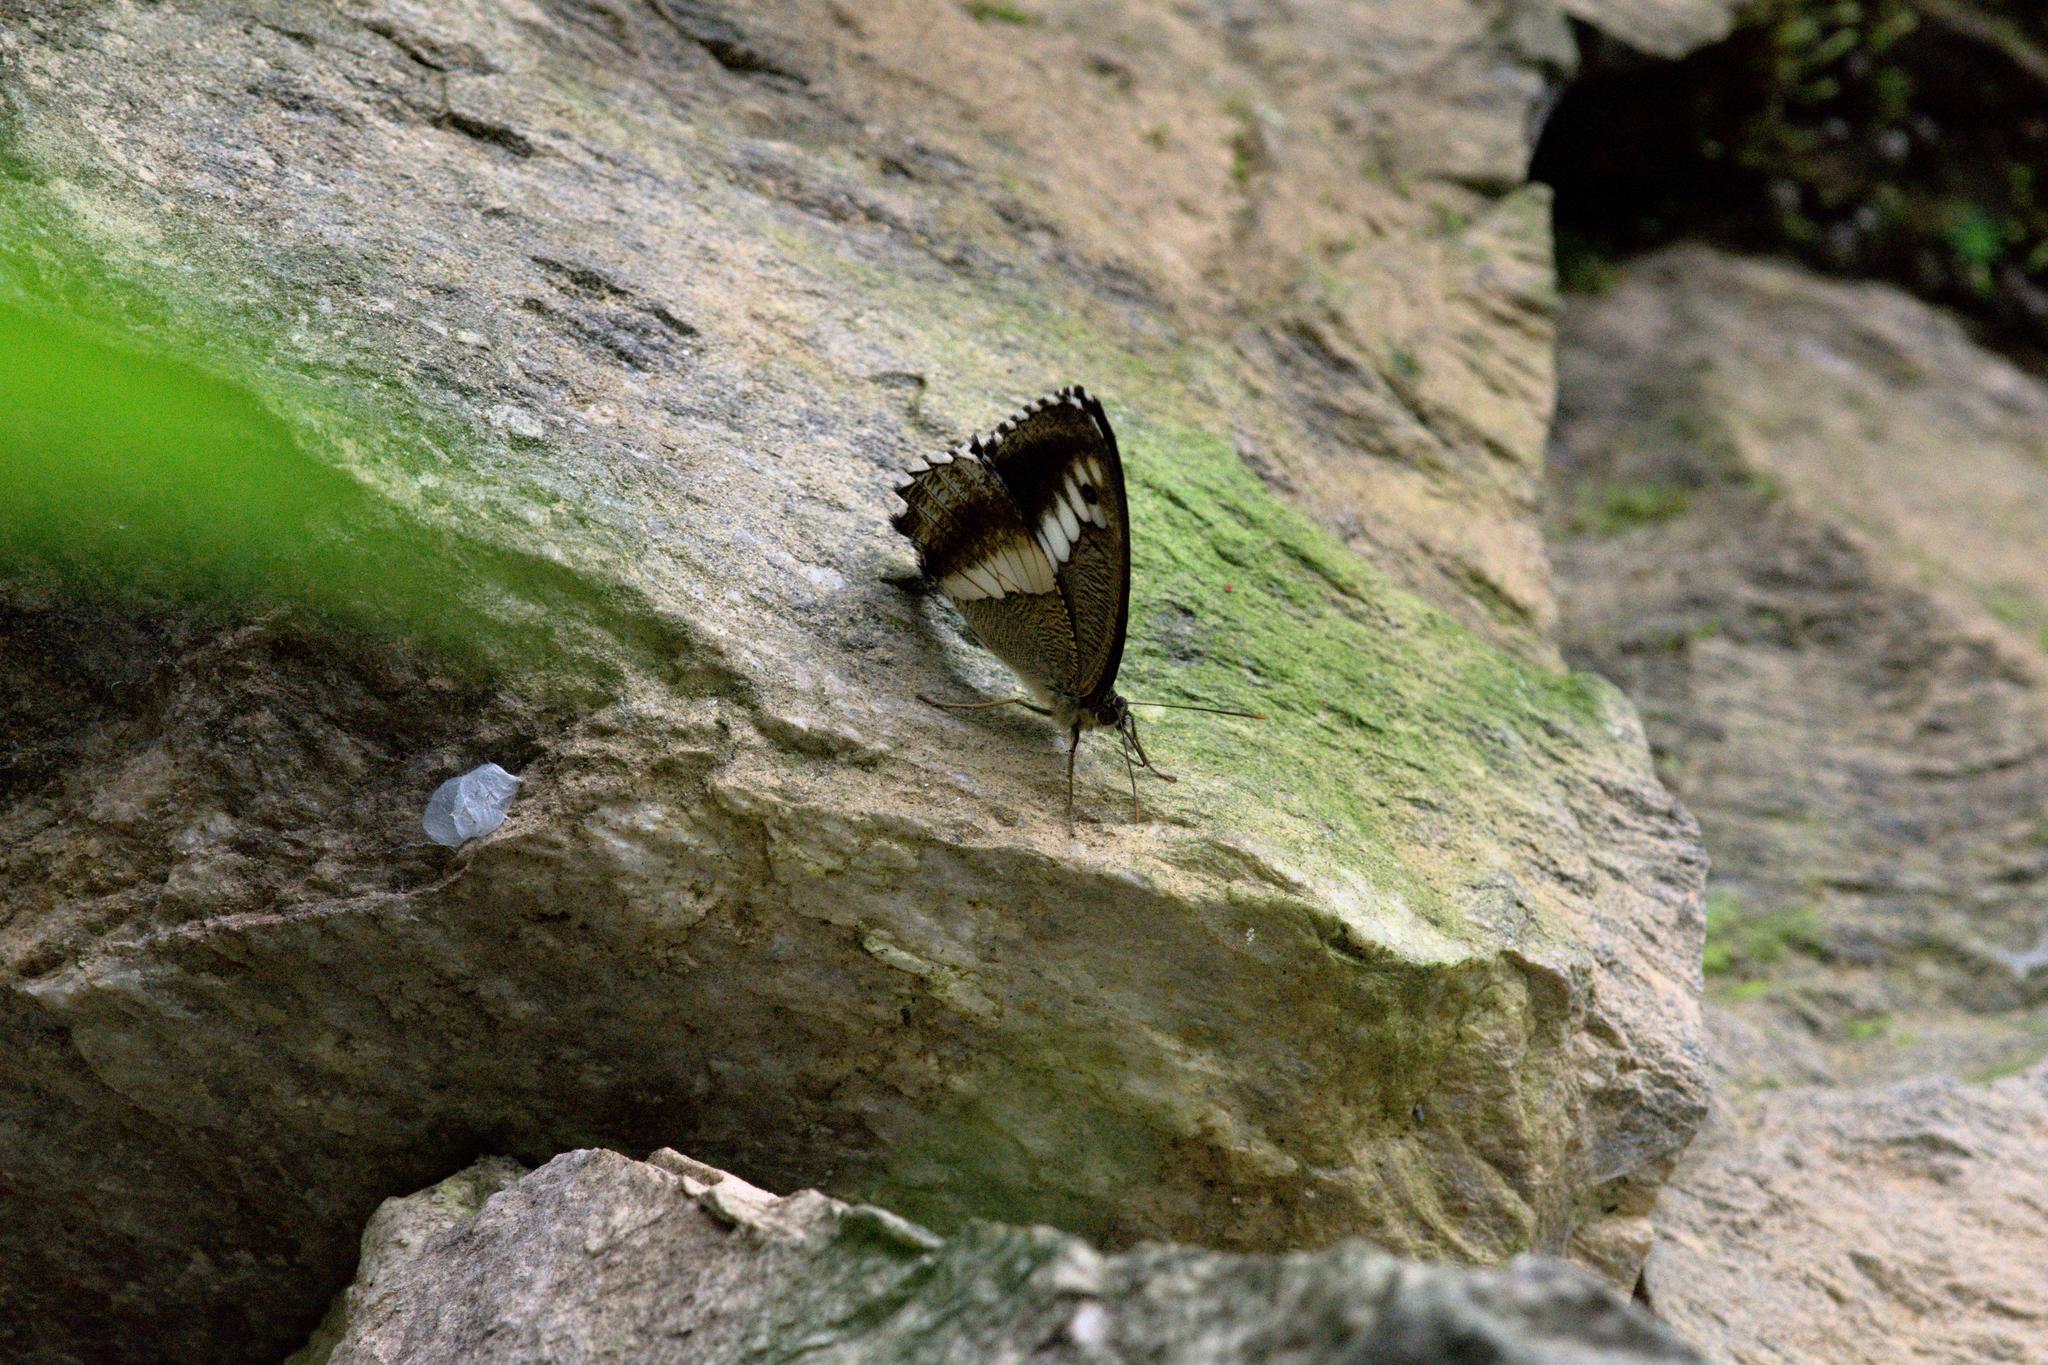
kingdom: Animalia
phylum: Arthropoda
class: Insecta
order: Lepidoptera
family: Nymphalidae
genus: Satyrus
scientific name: Satyrus
